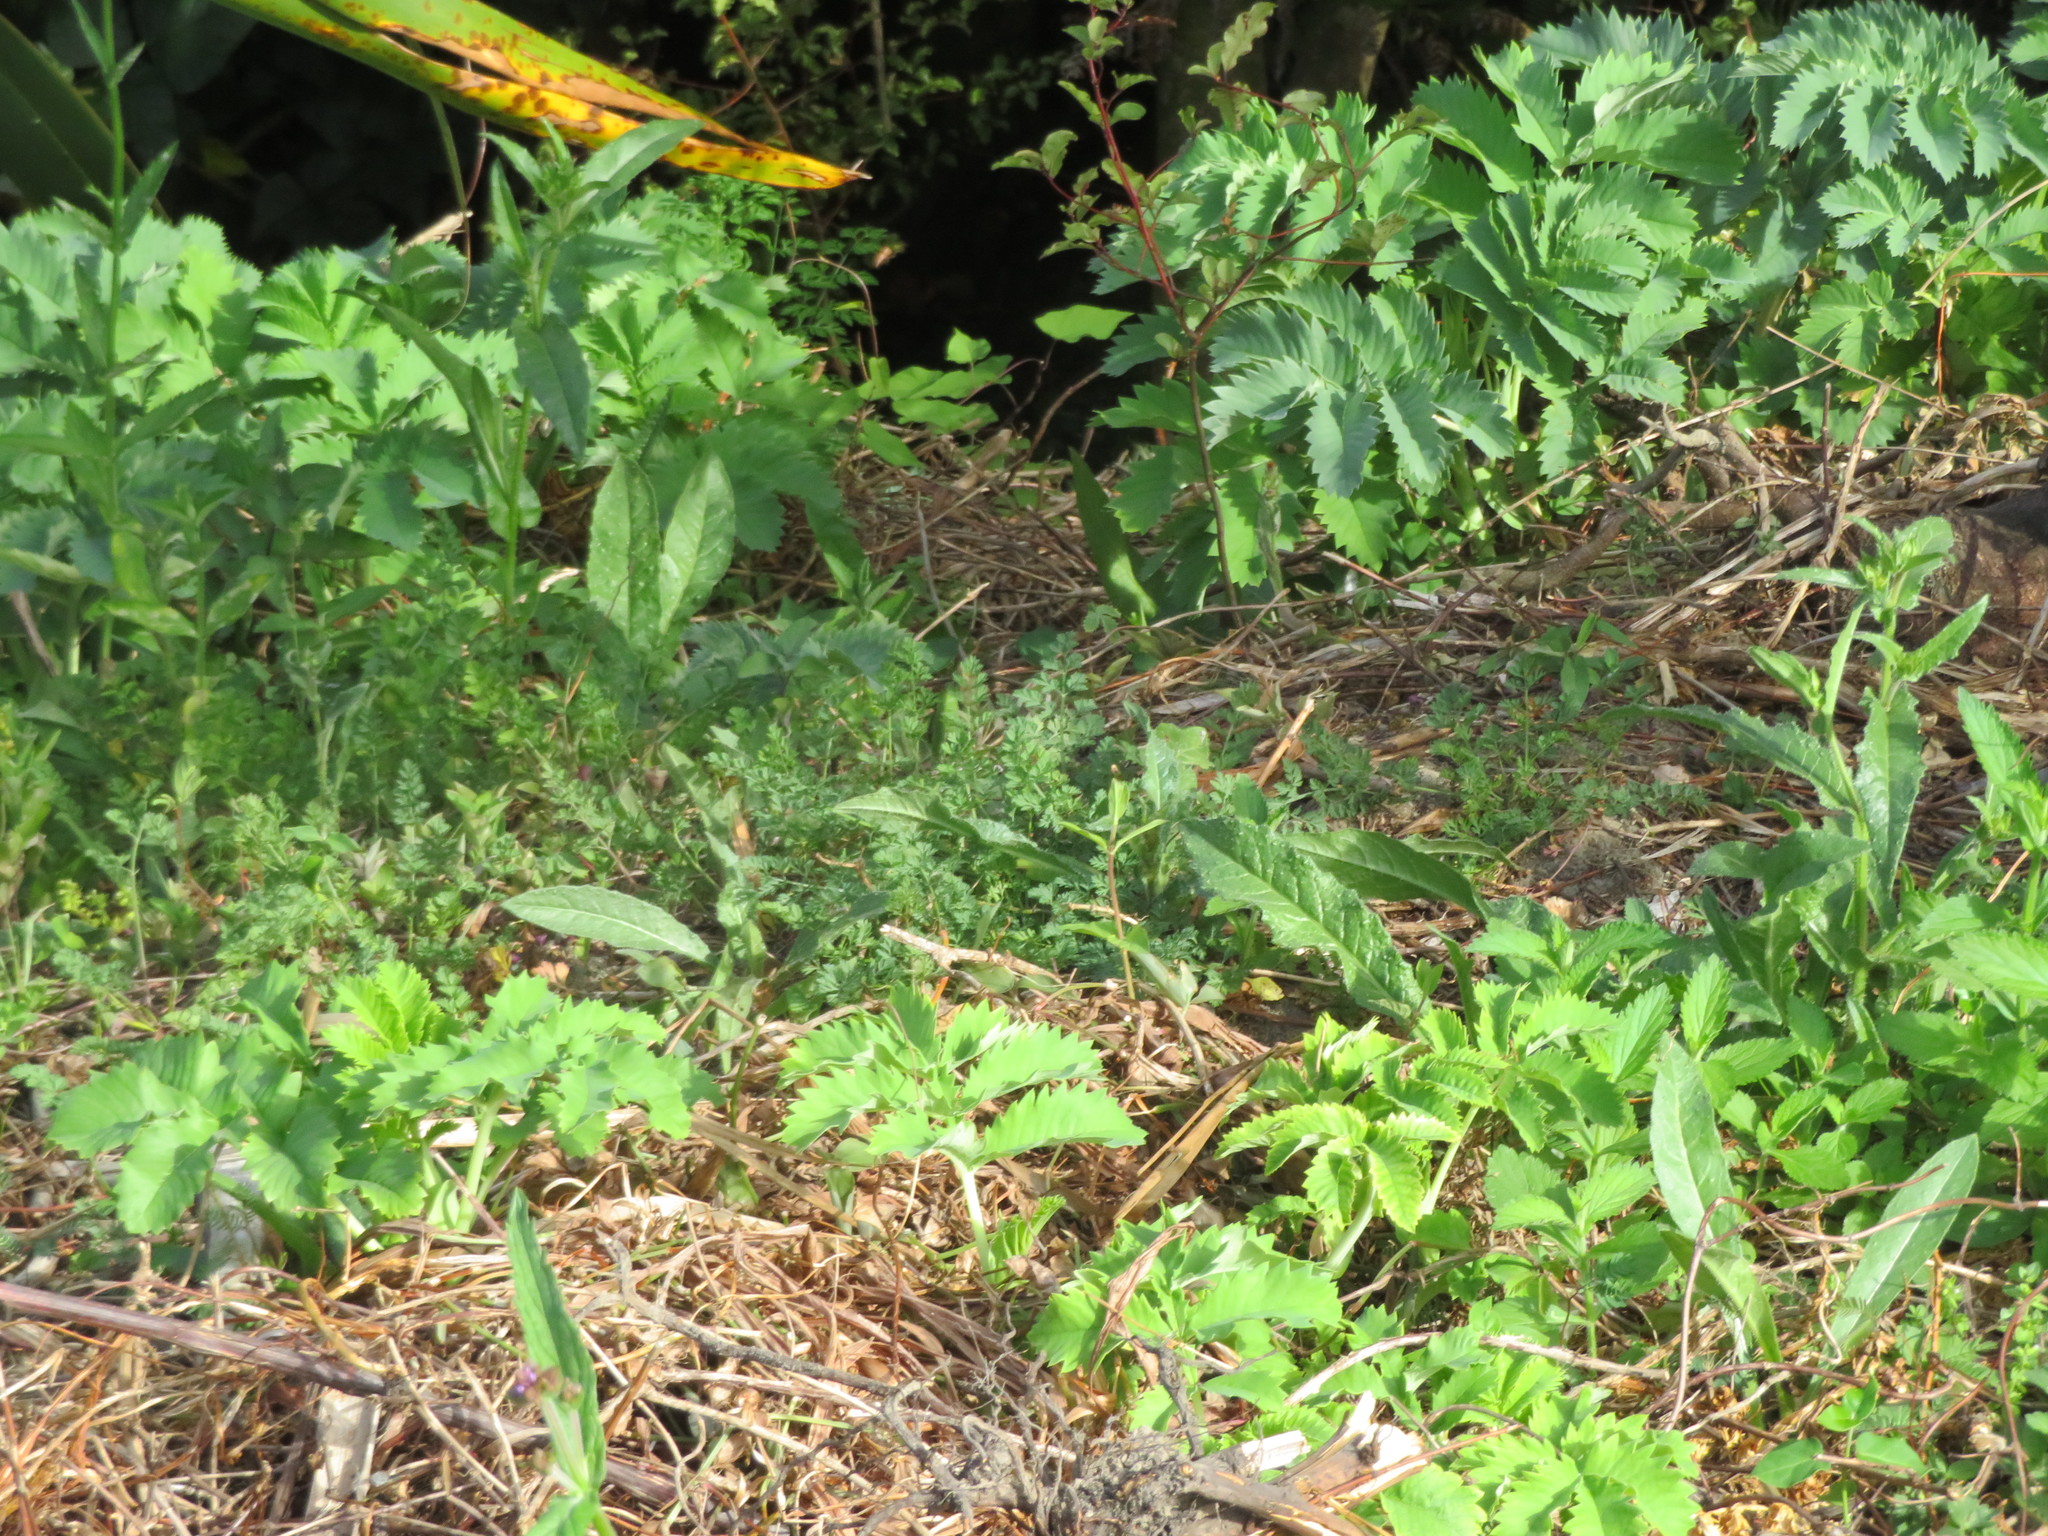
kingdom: Plantae
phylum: Tracheophyta
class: Magnoliopsida
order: Geraniales
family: Melianthaceae
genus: Melianthus
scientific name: Melianthus major
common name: Honey-flower
